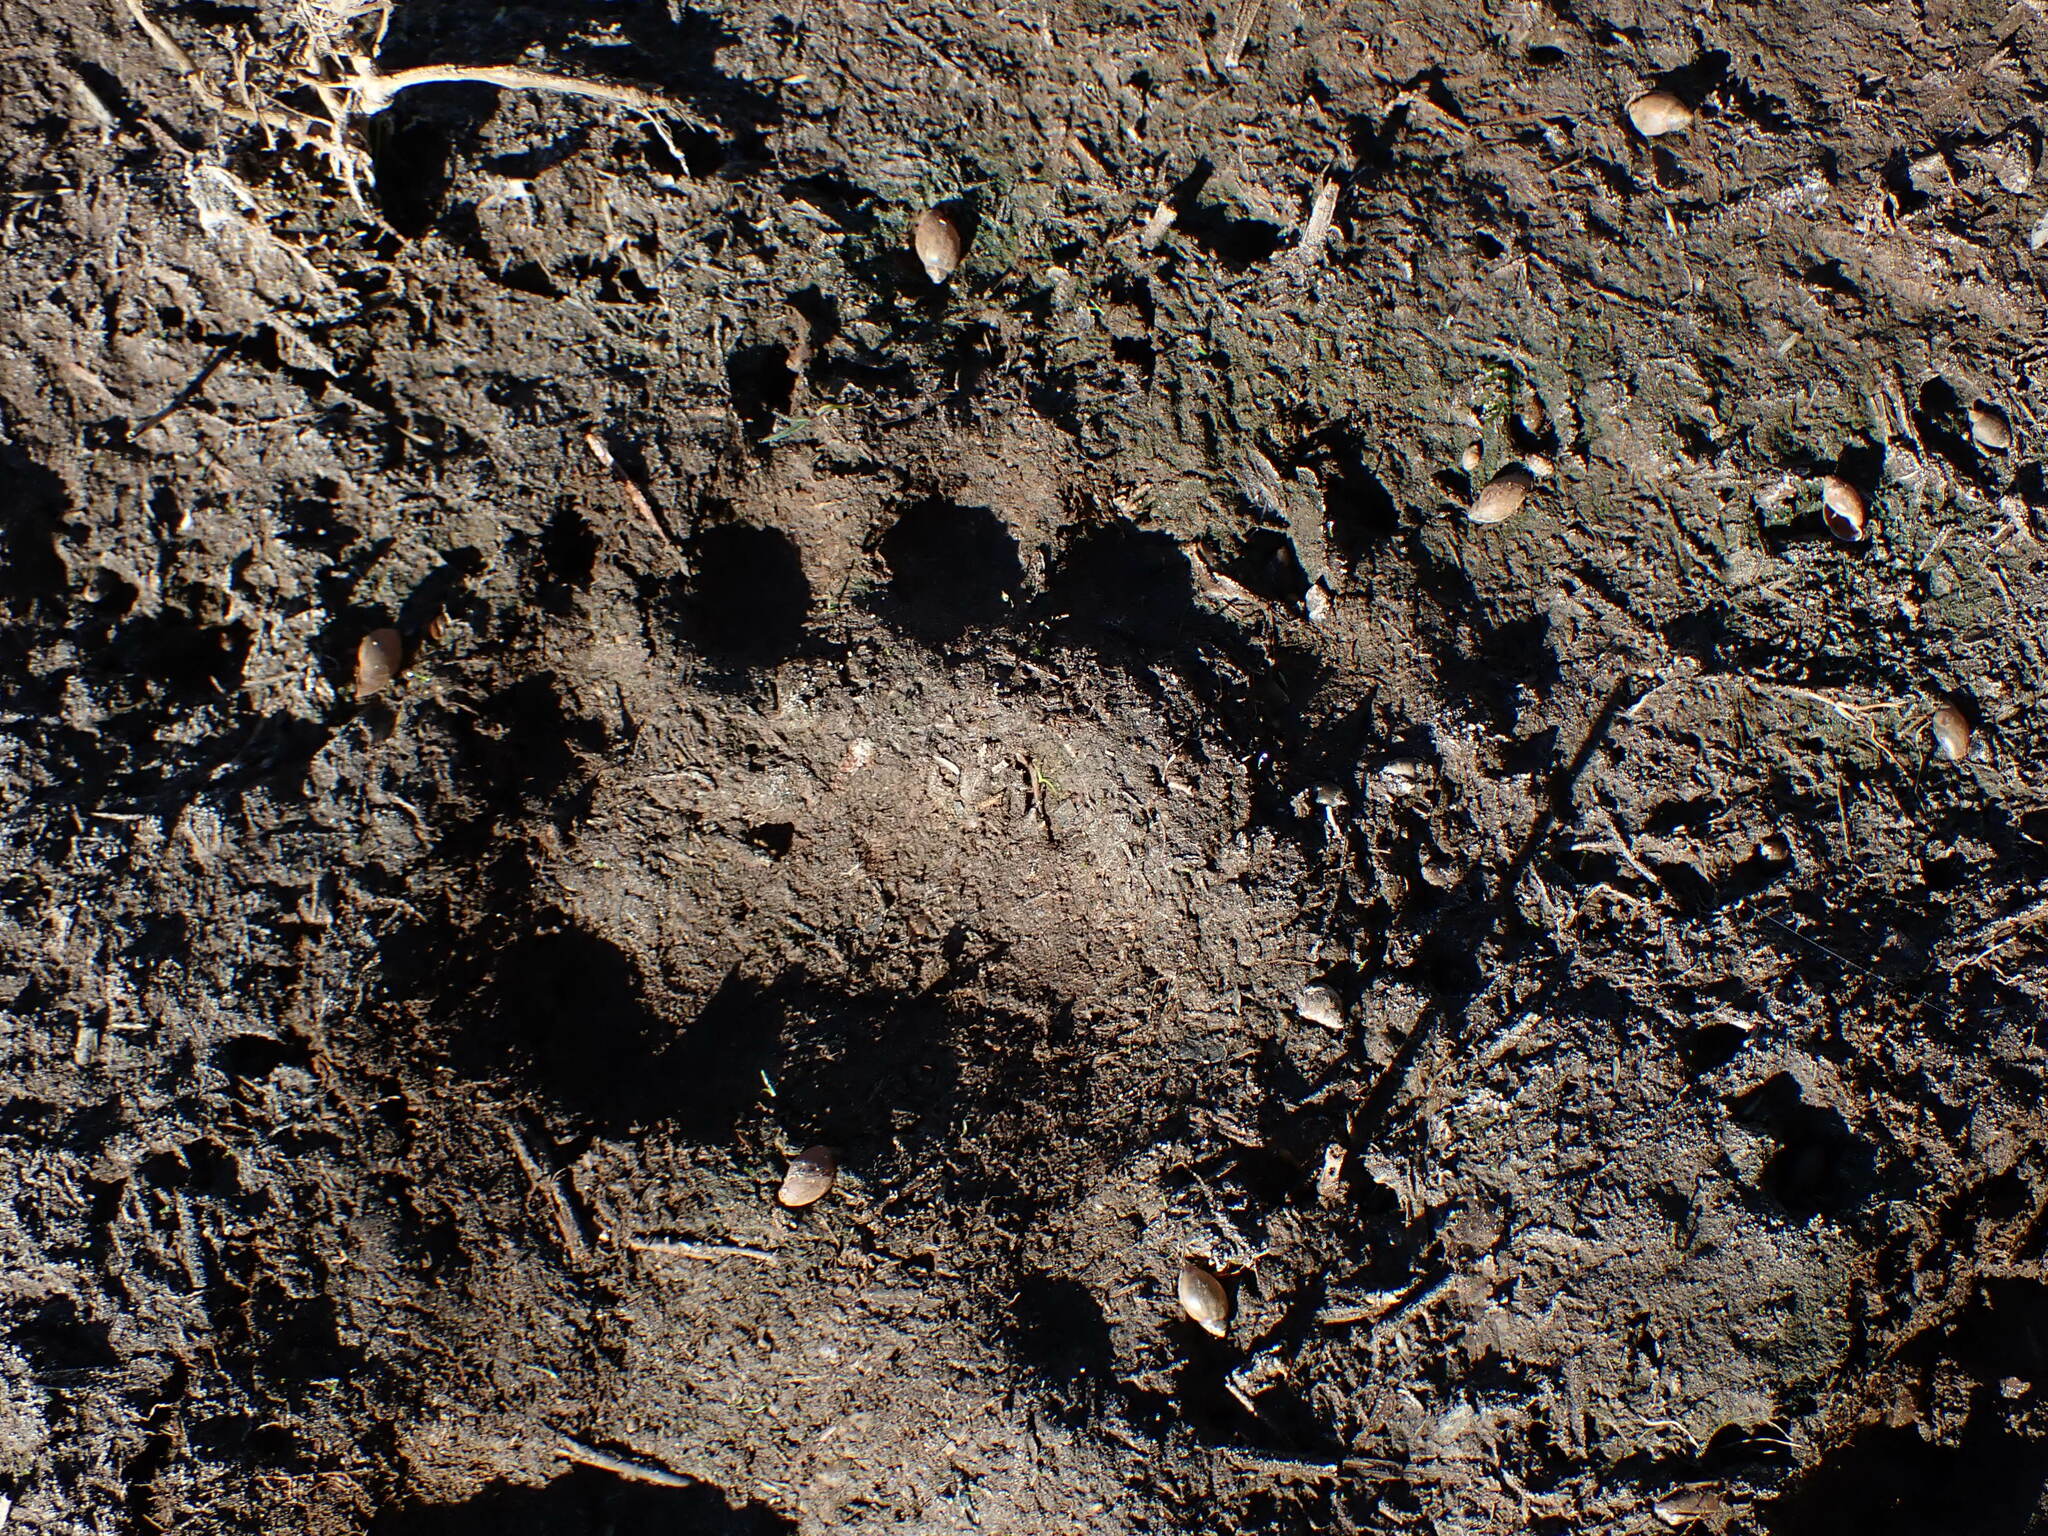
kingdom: Animalia
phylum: Chordata
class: Mammalia
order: Carnivora
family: Ursidae
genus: Ursus
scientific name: Ursus americanus
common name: American black bear
